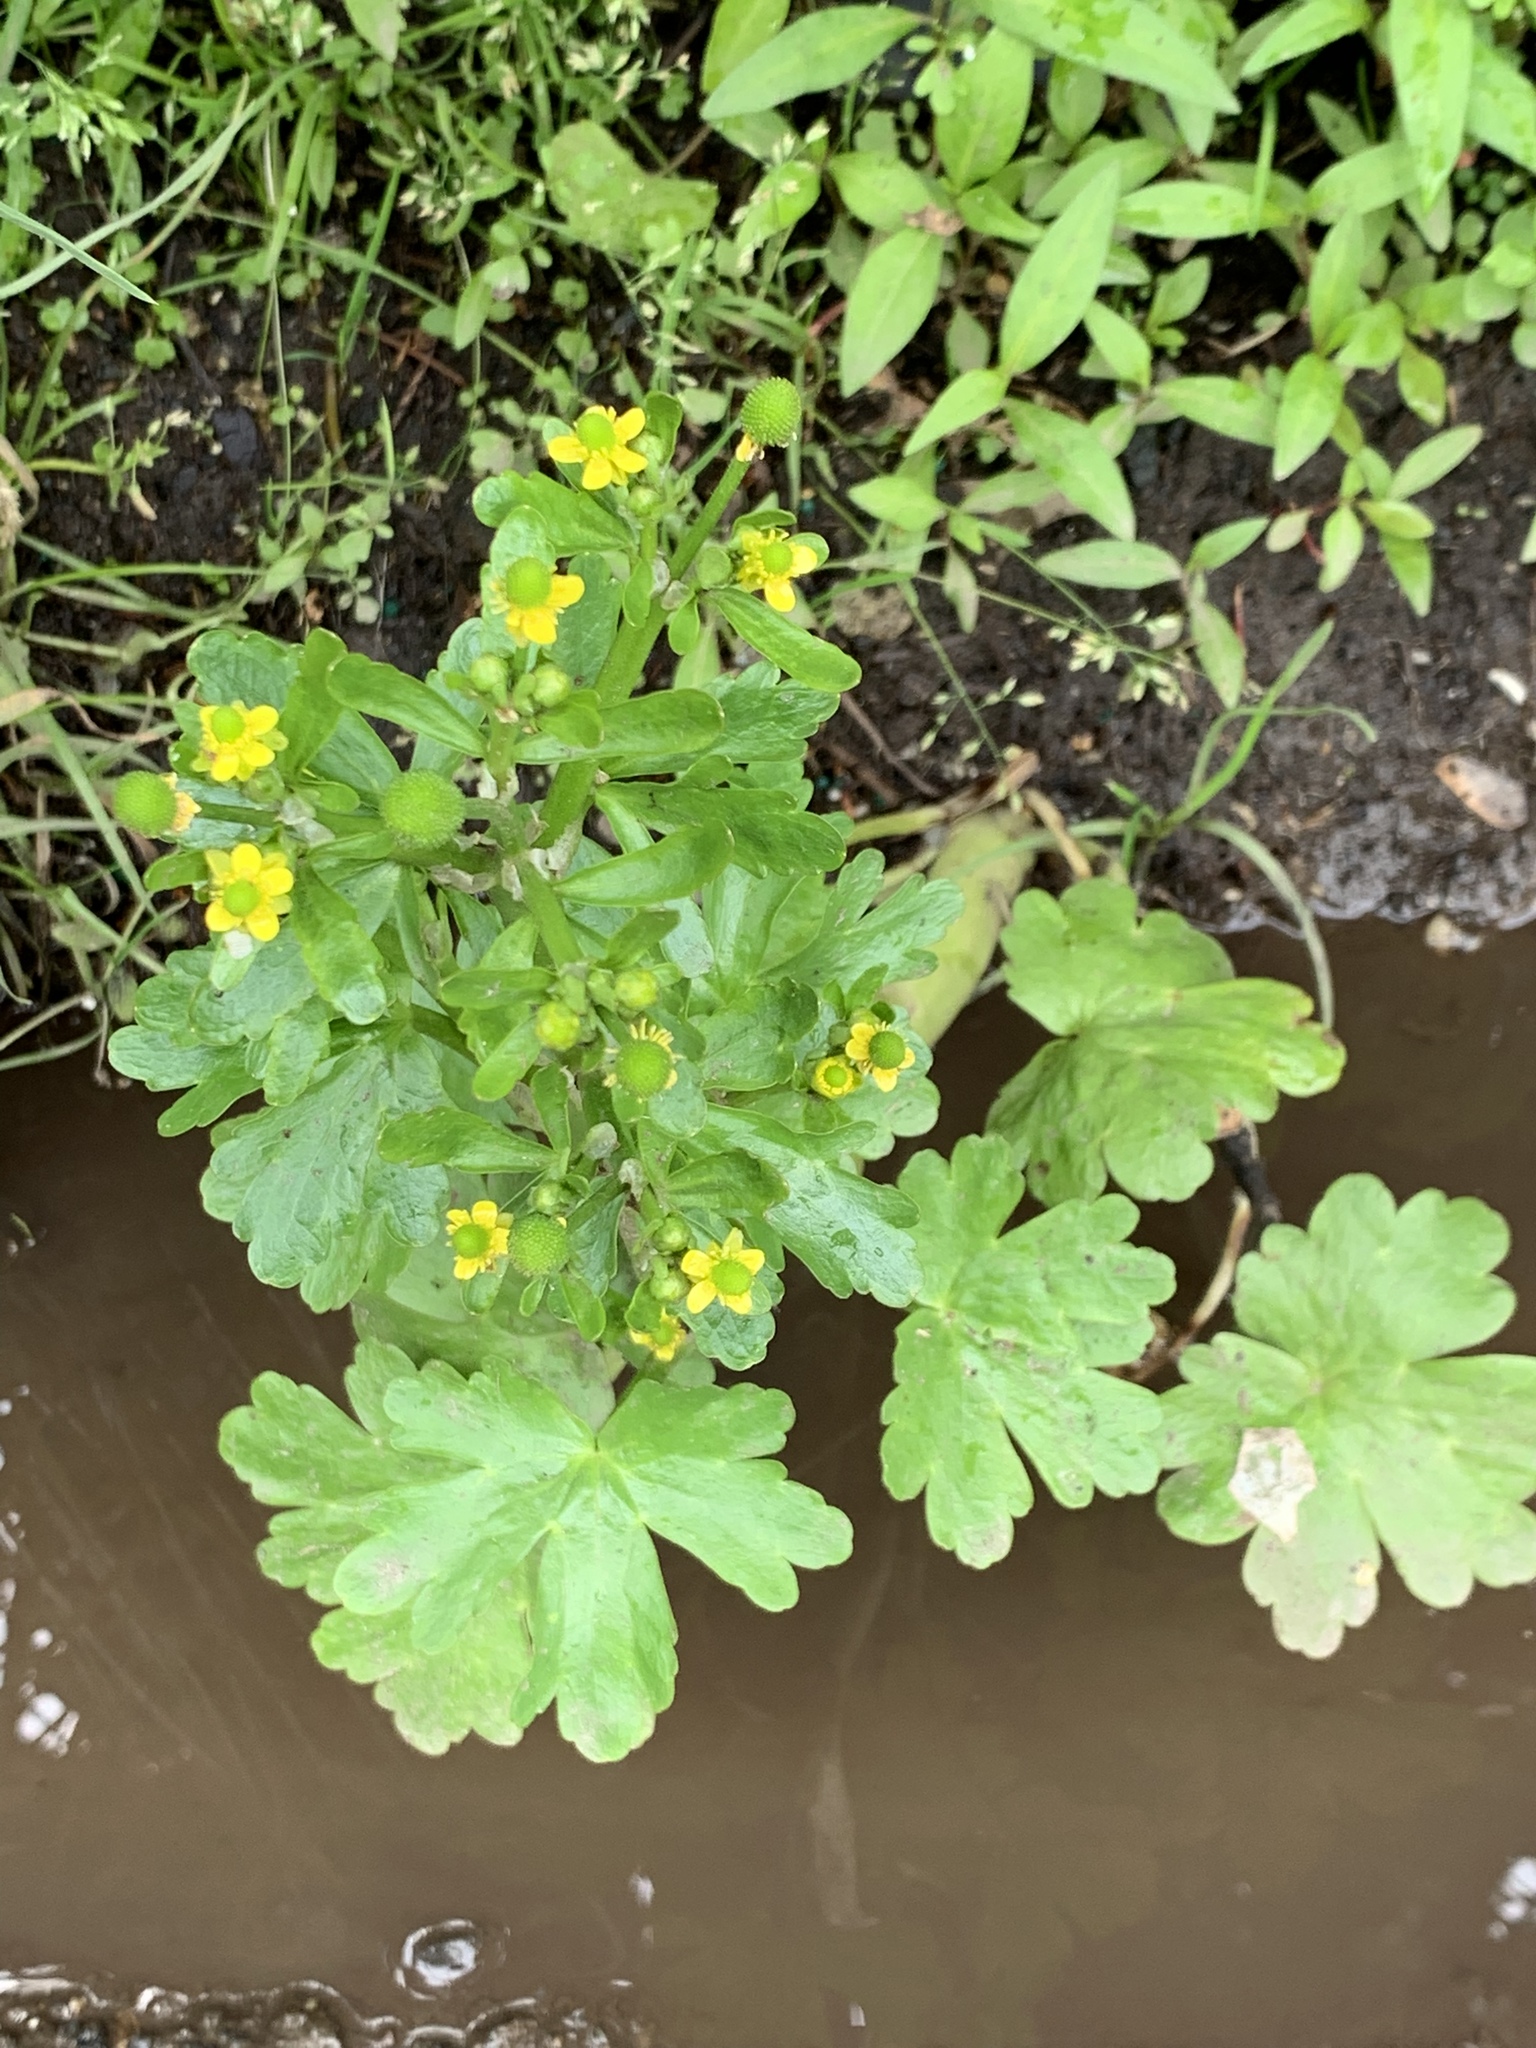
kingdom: Plantae
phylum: Tracheophyta
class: Magnoliopsida
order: Ranunculales
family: Ranunculaceae
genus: Ranunculus
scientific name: Ranunculus sceleratus
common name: Celery-leaved buttercup
